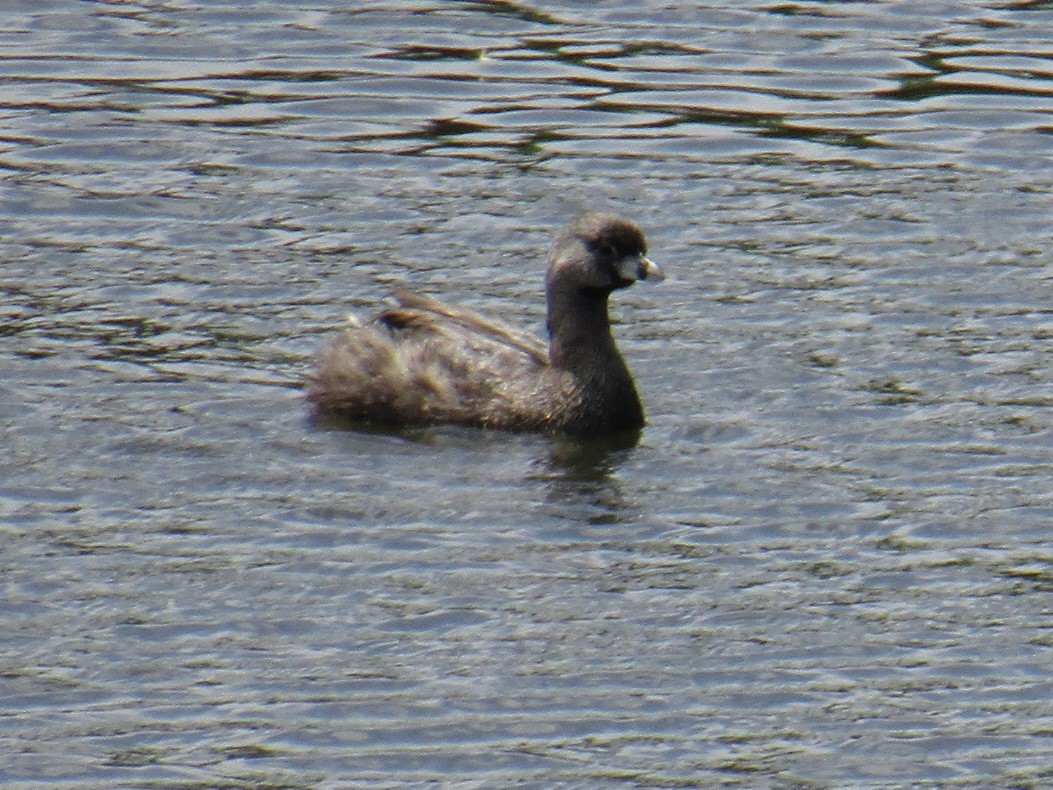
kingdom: Animalia
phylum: Chordata
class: Aves
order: Podicipediformes
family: Podicipedidae
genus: Podilymbus
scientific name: Podilymbus podiceps
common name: Pied-billed grebe
